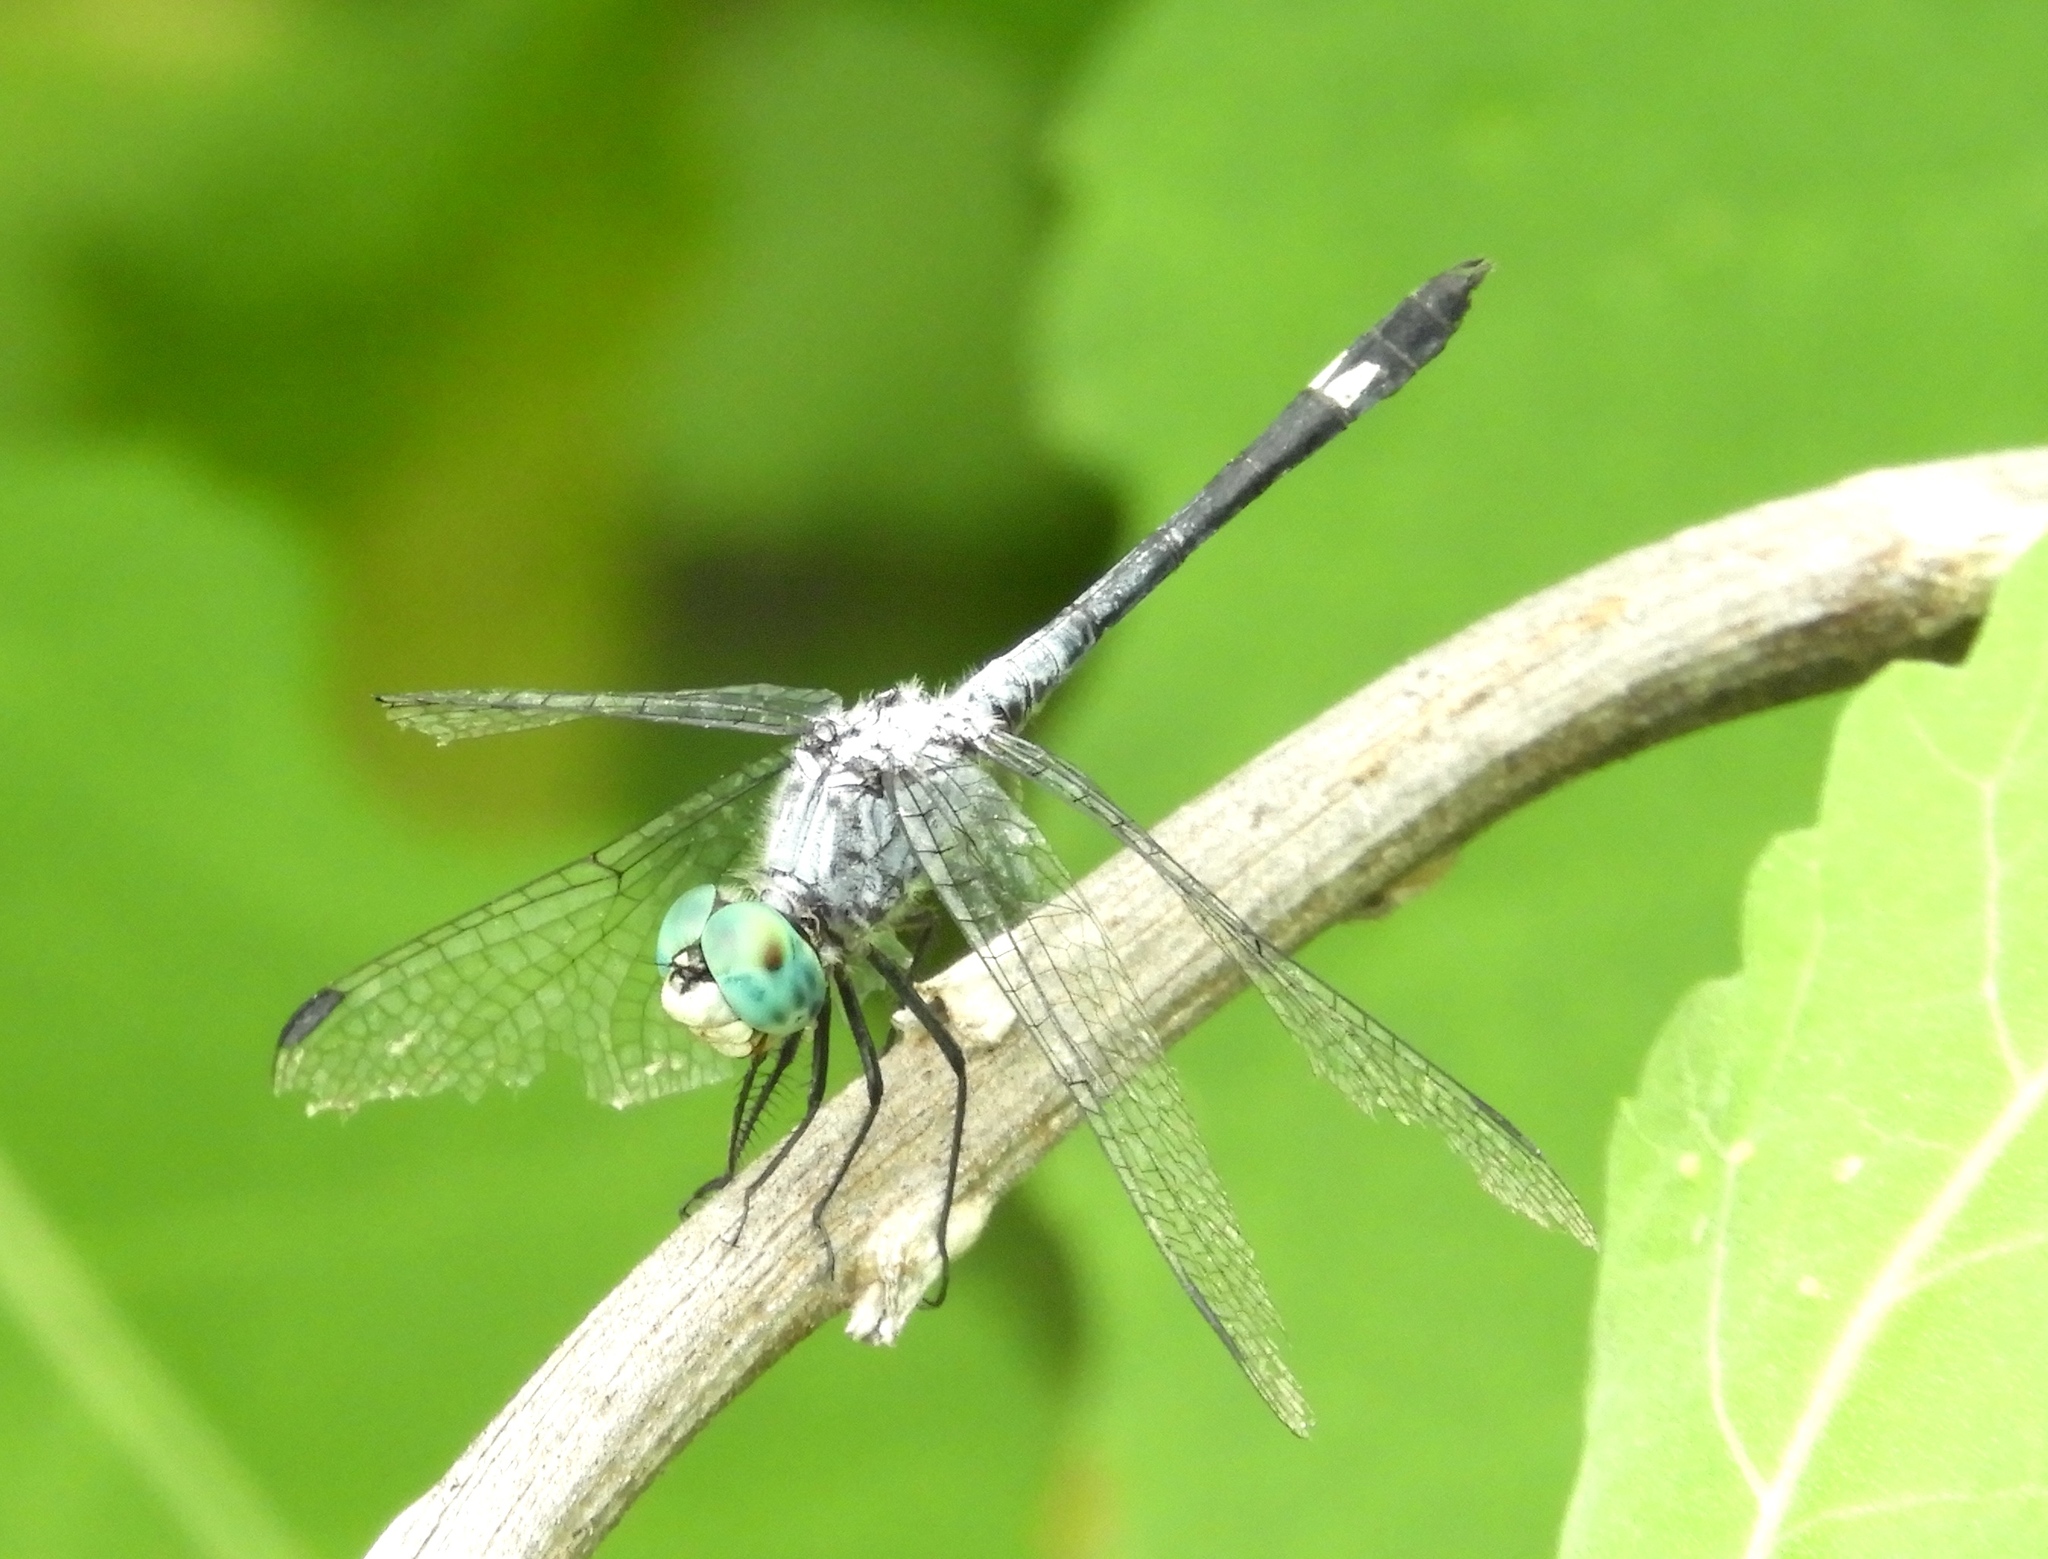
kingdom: Animalia
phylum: Arthropoda
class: Insecta
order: Odonata
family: Libellulidae
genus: Micrathyria
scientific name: Micrathyria aequalis
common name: Spot-tailed dasher
